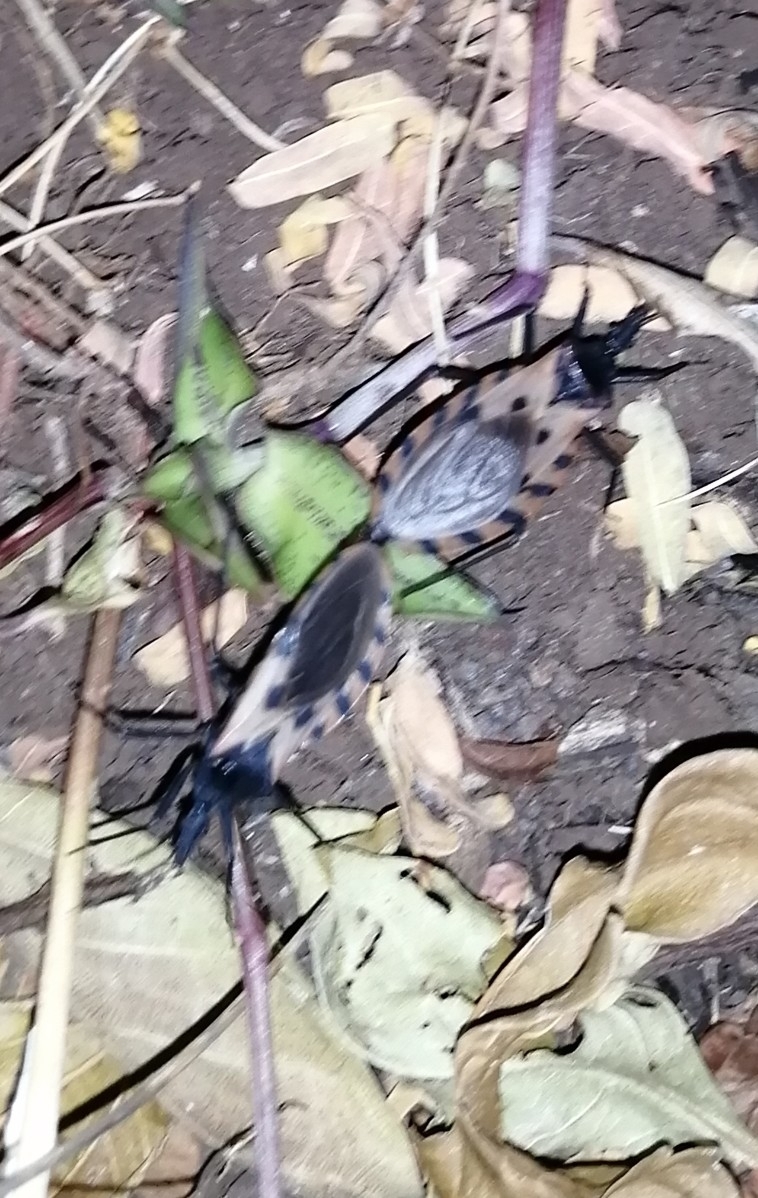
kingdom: Animalia
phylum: Arthropoda
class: Insecta
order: Hemiptera
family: Reduviidae
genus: Meccus
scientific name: Meccus dimidiatus
